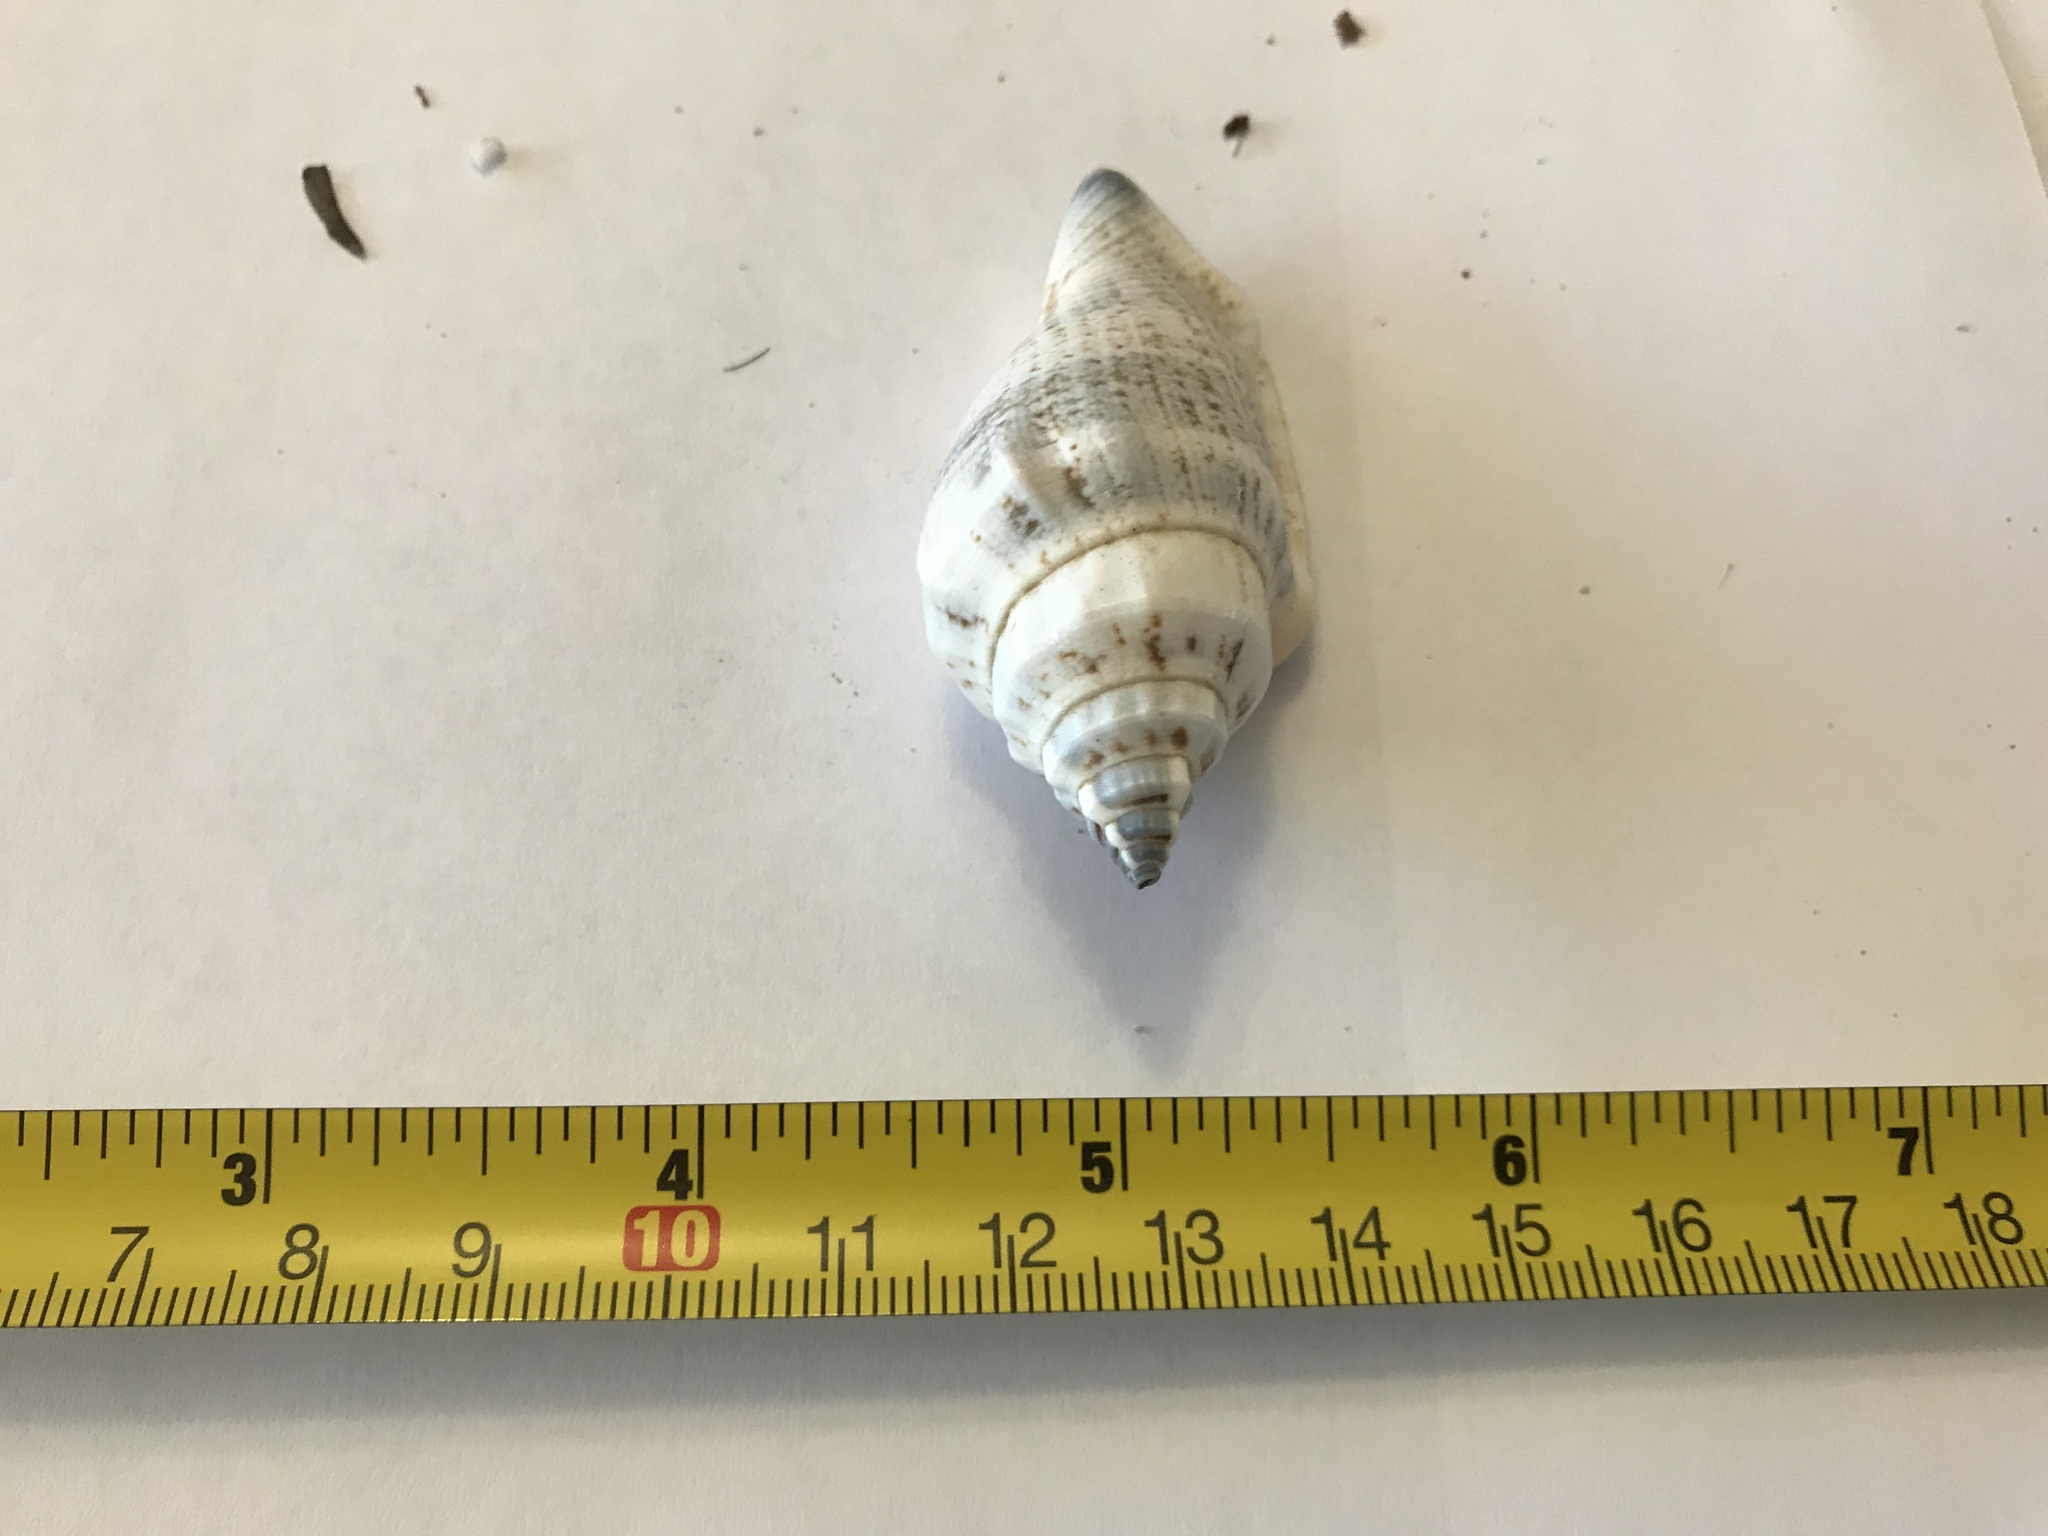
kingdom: Animalia
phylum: Mollusca
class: Gastropoda
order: Littorinimorpha
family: Strombidae
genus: Canarium
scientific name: Canarium urceus
